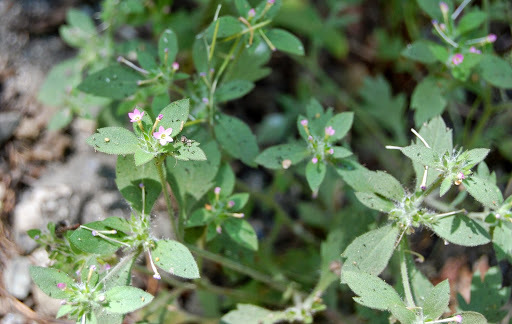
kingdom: Plantae
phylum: Tracheophyta
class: Magnoliopsida
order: Ericales
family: Polemoniaceae
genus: Collomia
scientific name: Collomia heterophylla
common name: Variable-leaved collomia
